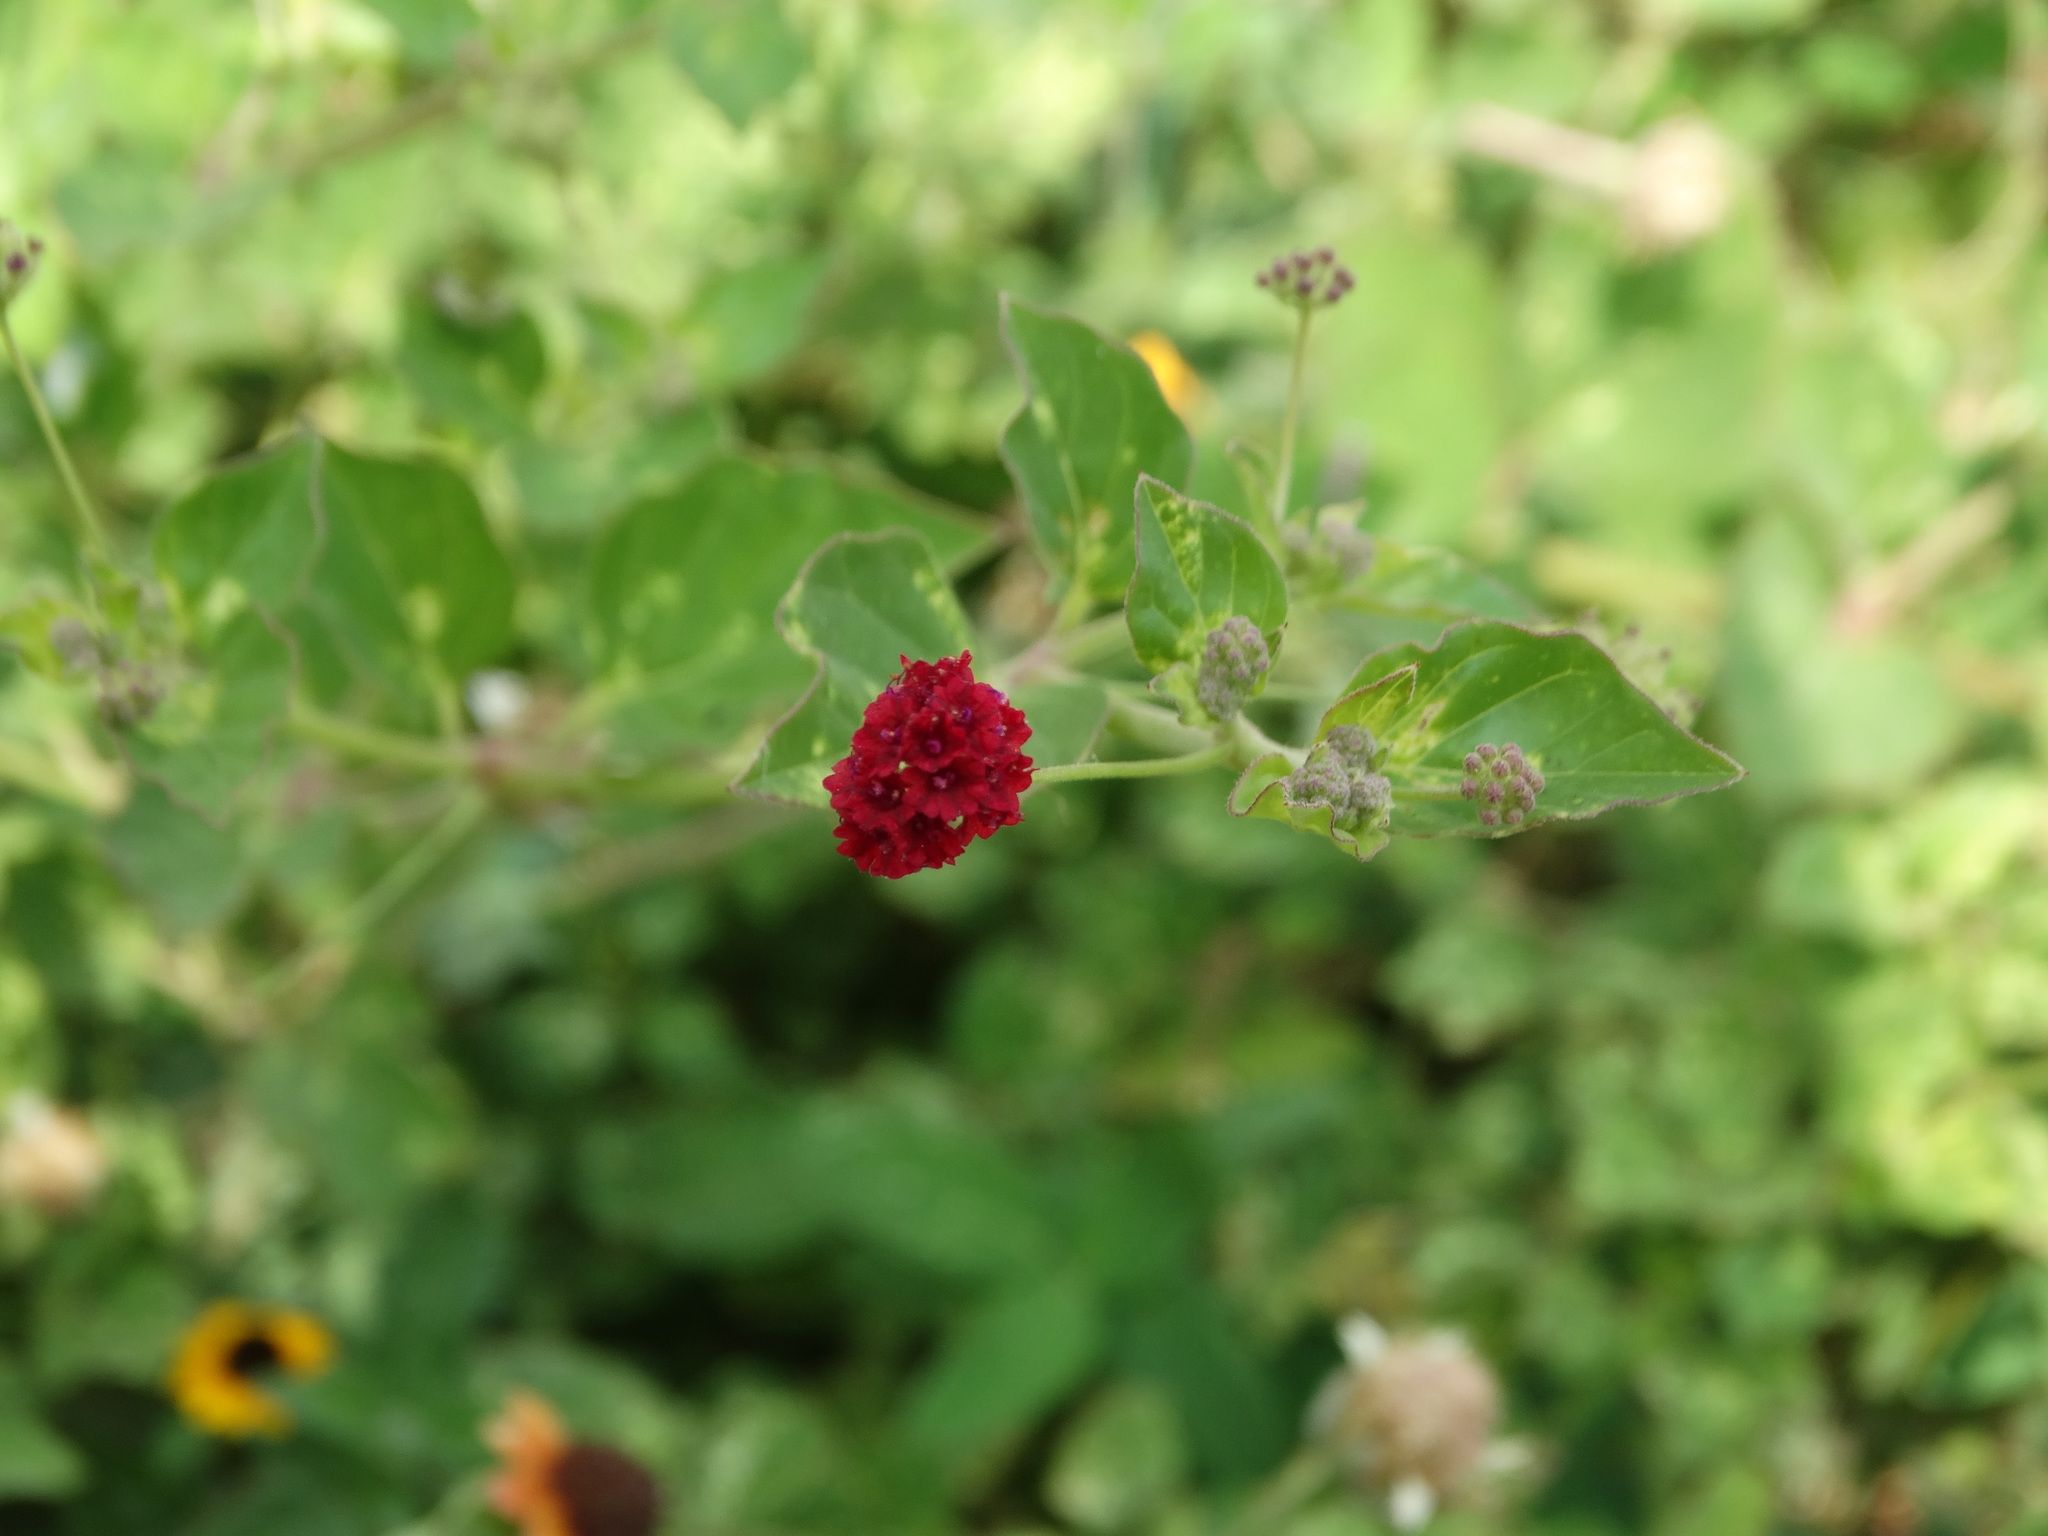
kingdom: Plantae
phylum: Tracheophyta
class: Magnoliopsida
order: Caryophyllales
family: Nyctaginaceae
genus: Boerhavia
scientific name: Boerhavia coccinea
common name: Scarlet spiderling
